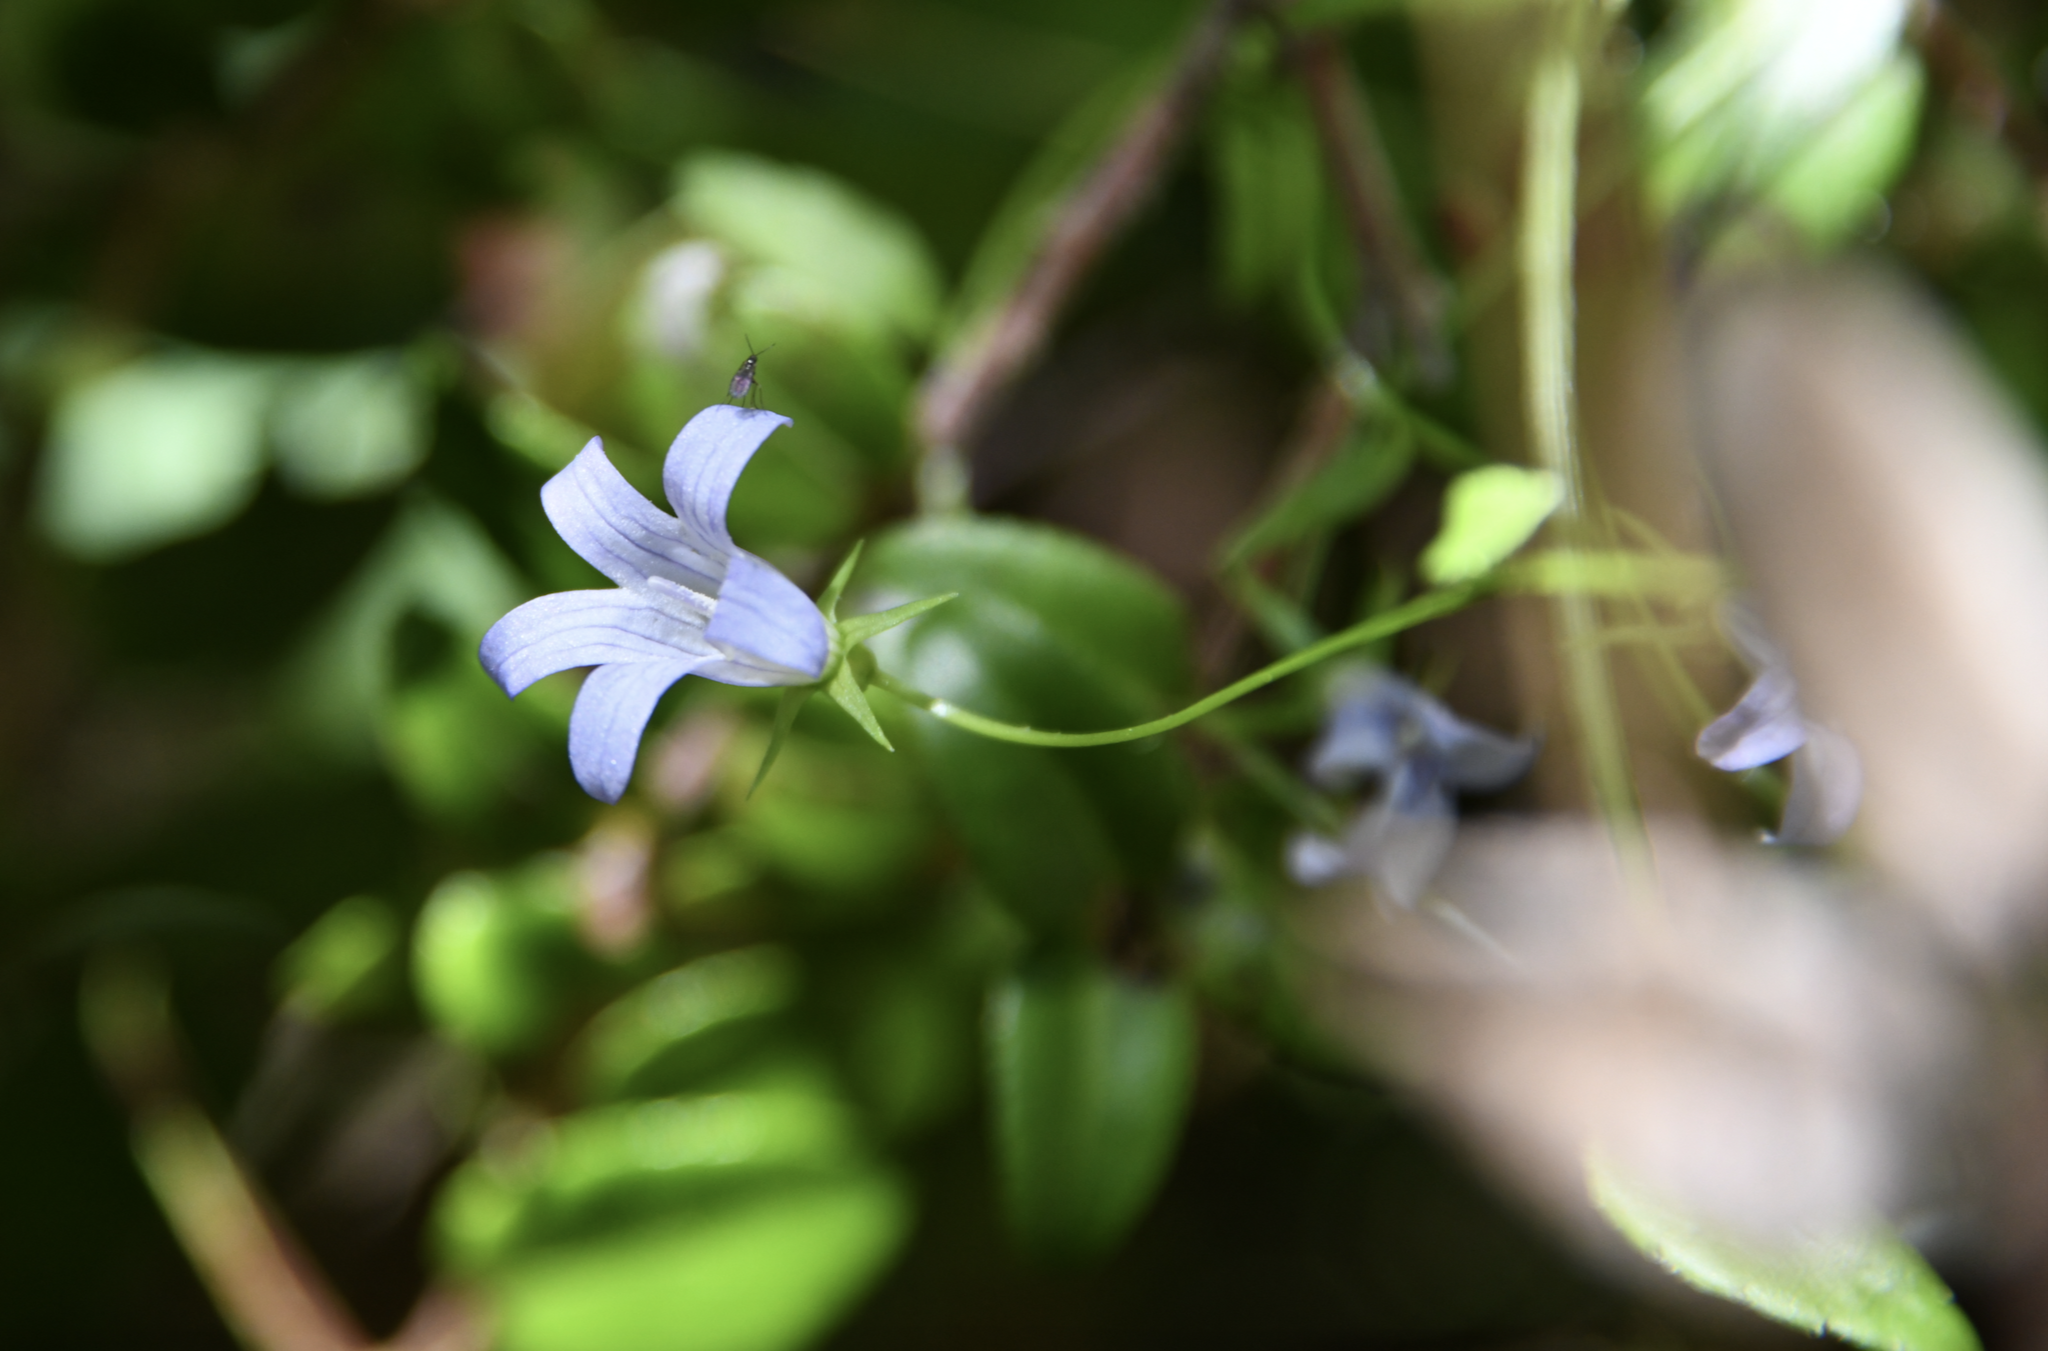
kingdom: Plantae
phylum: Tracheophyta
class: Magnoliopsida
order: Asterales
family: Campanulaceae
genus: Eastwoodiella
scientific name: Eastwoodiella californica
